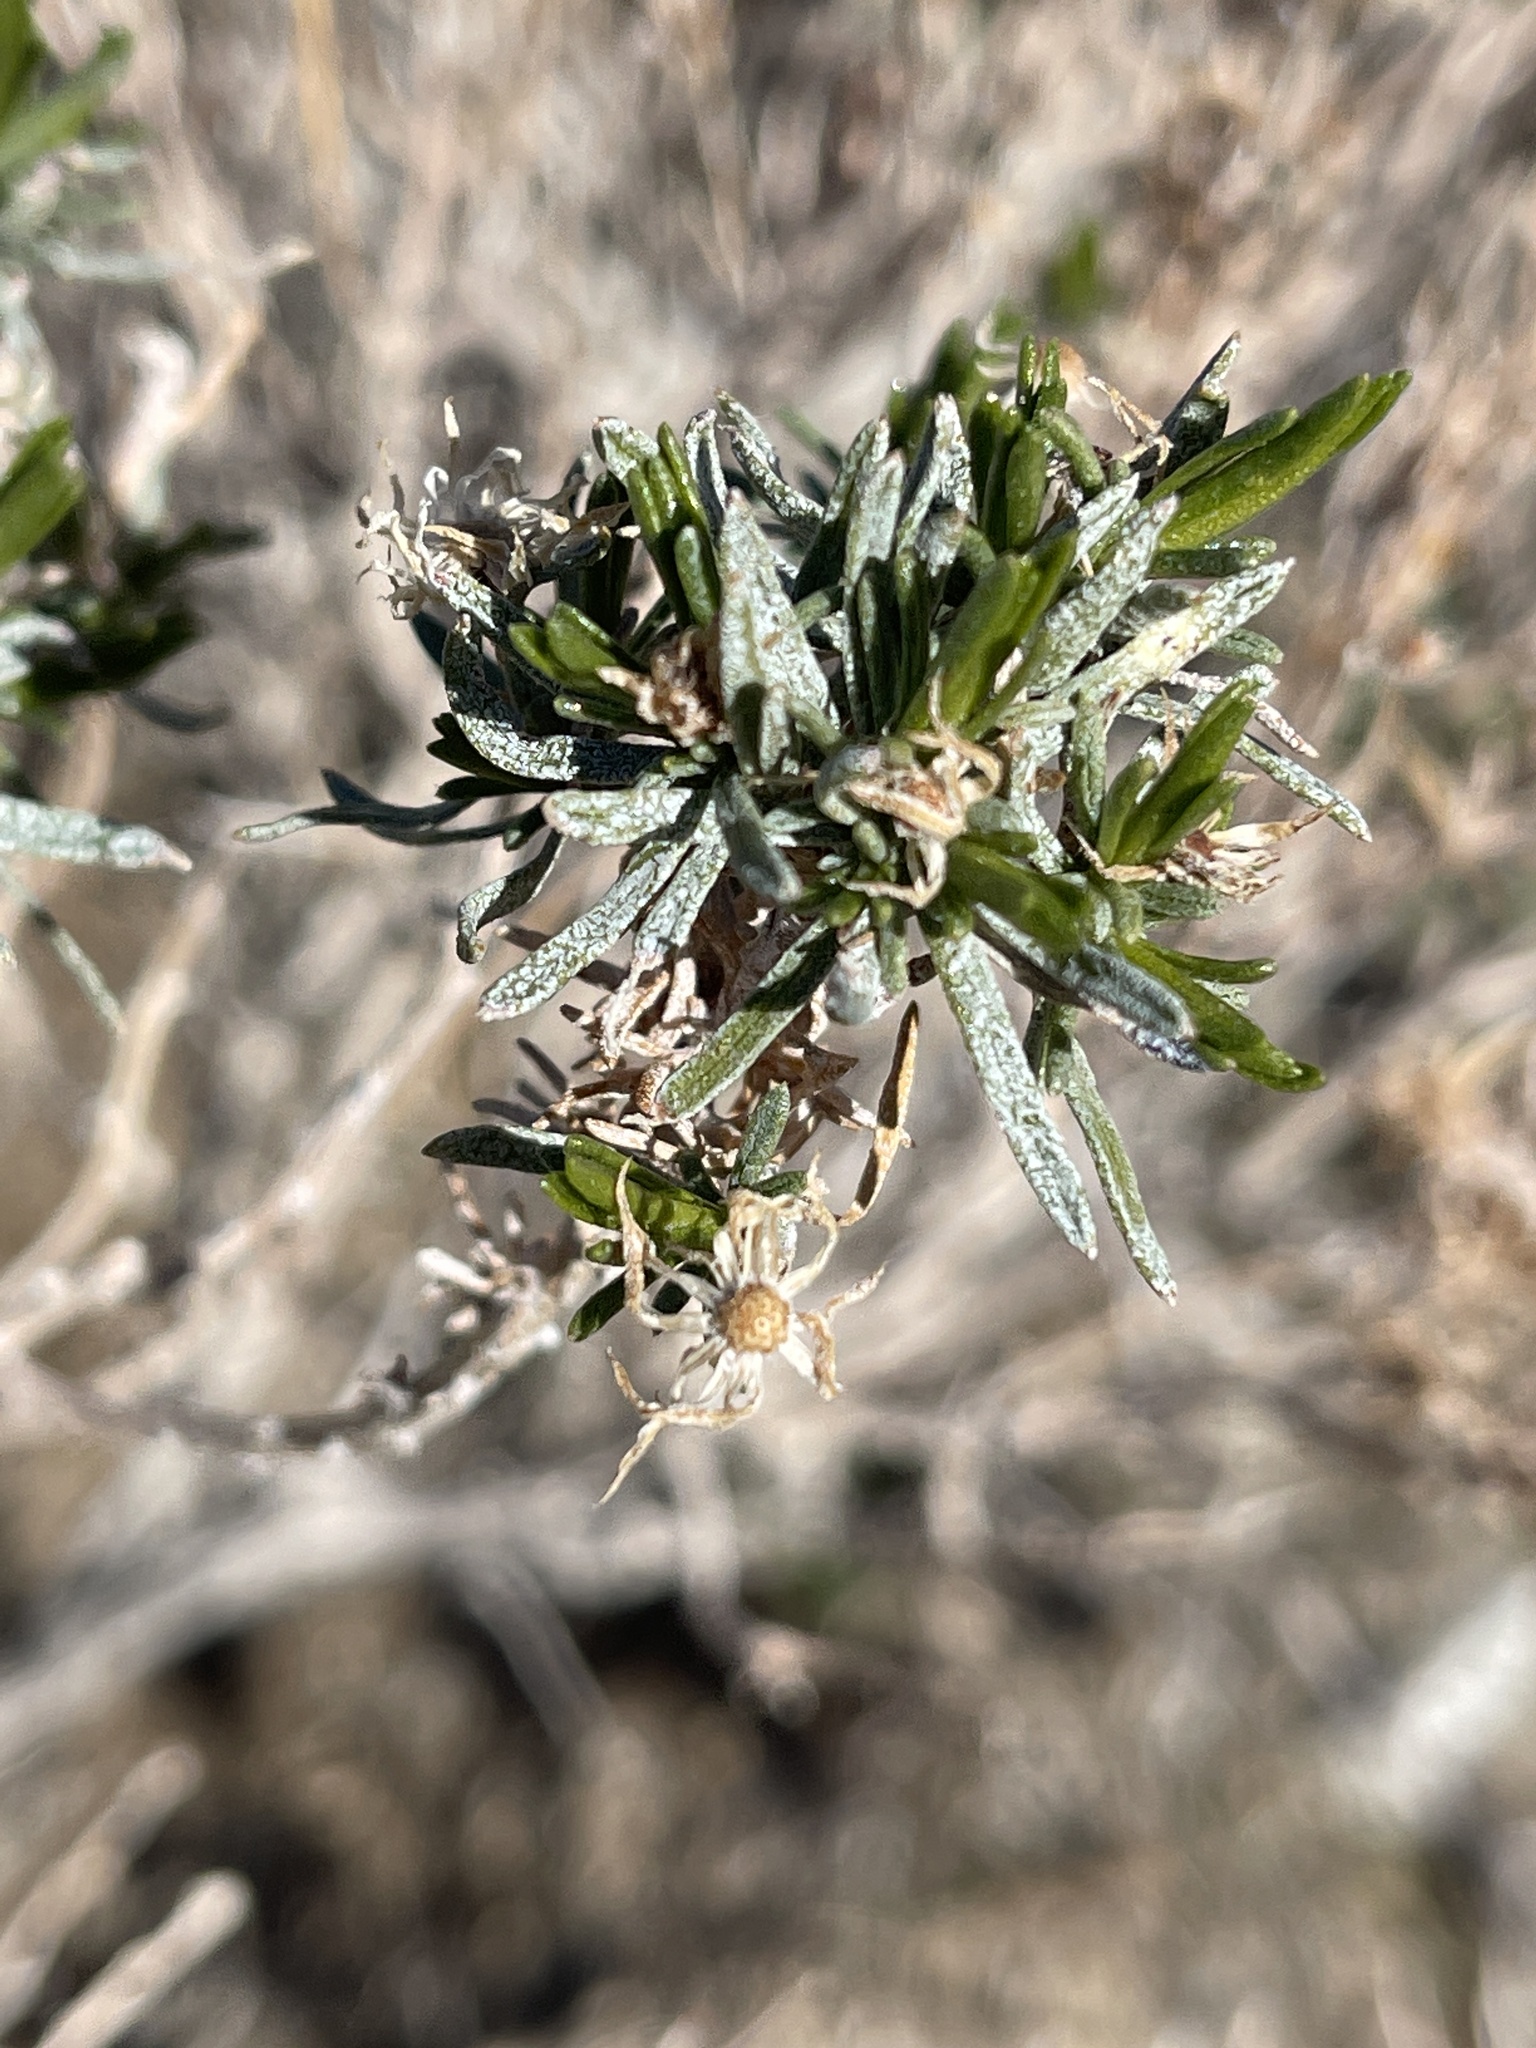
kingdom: Plantae
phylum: Tracheophyta
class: Magnoliopsida
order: Asterales
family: Asteraceae
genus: Ericameria
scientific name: Ericameria laricifolia
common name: Turpentine-bush
